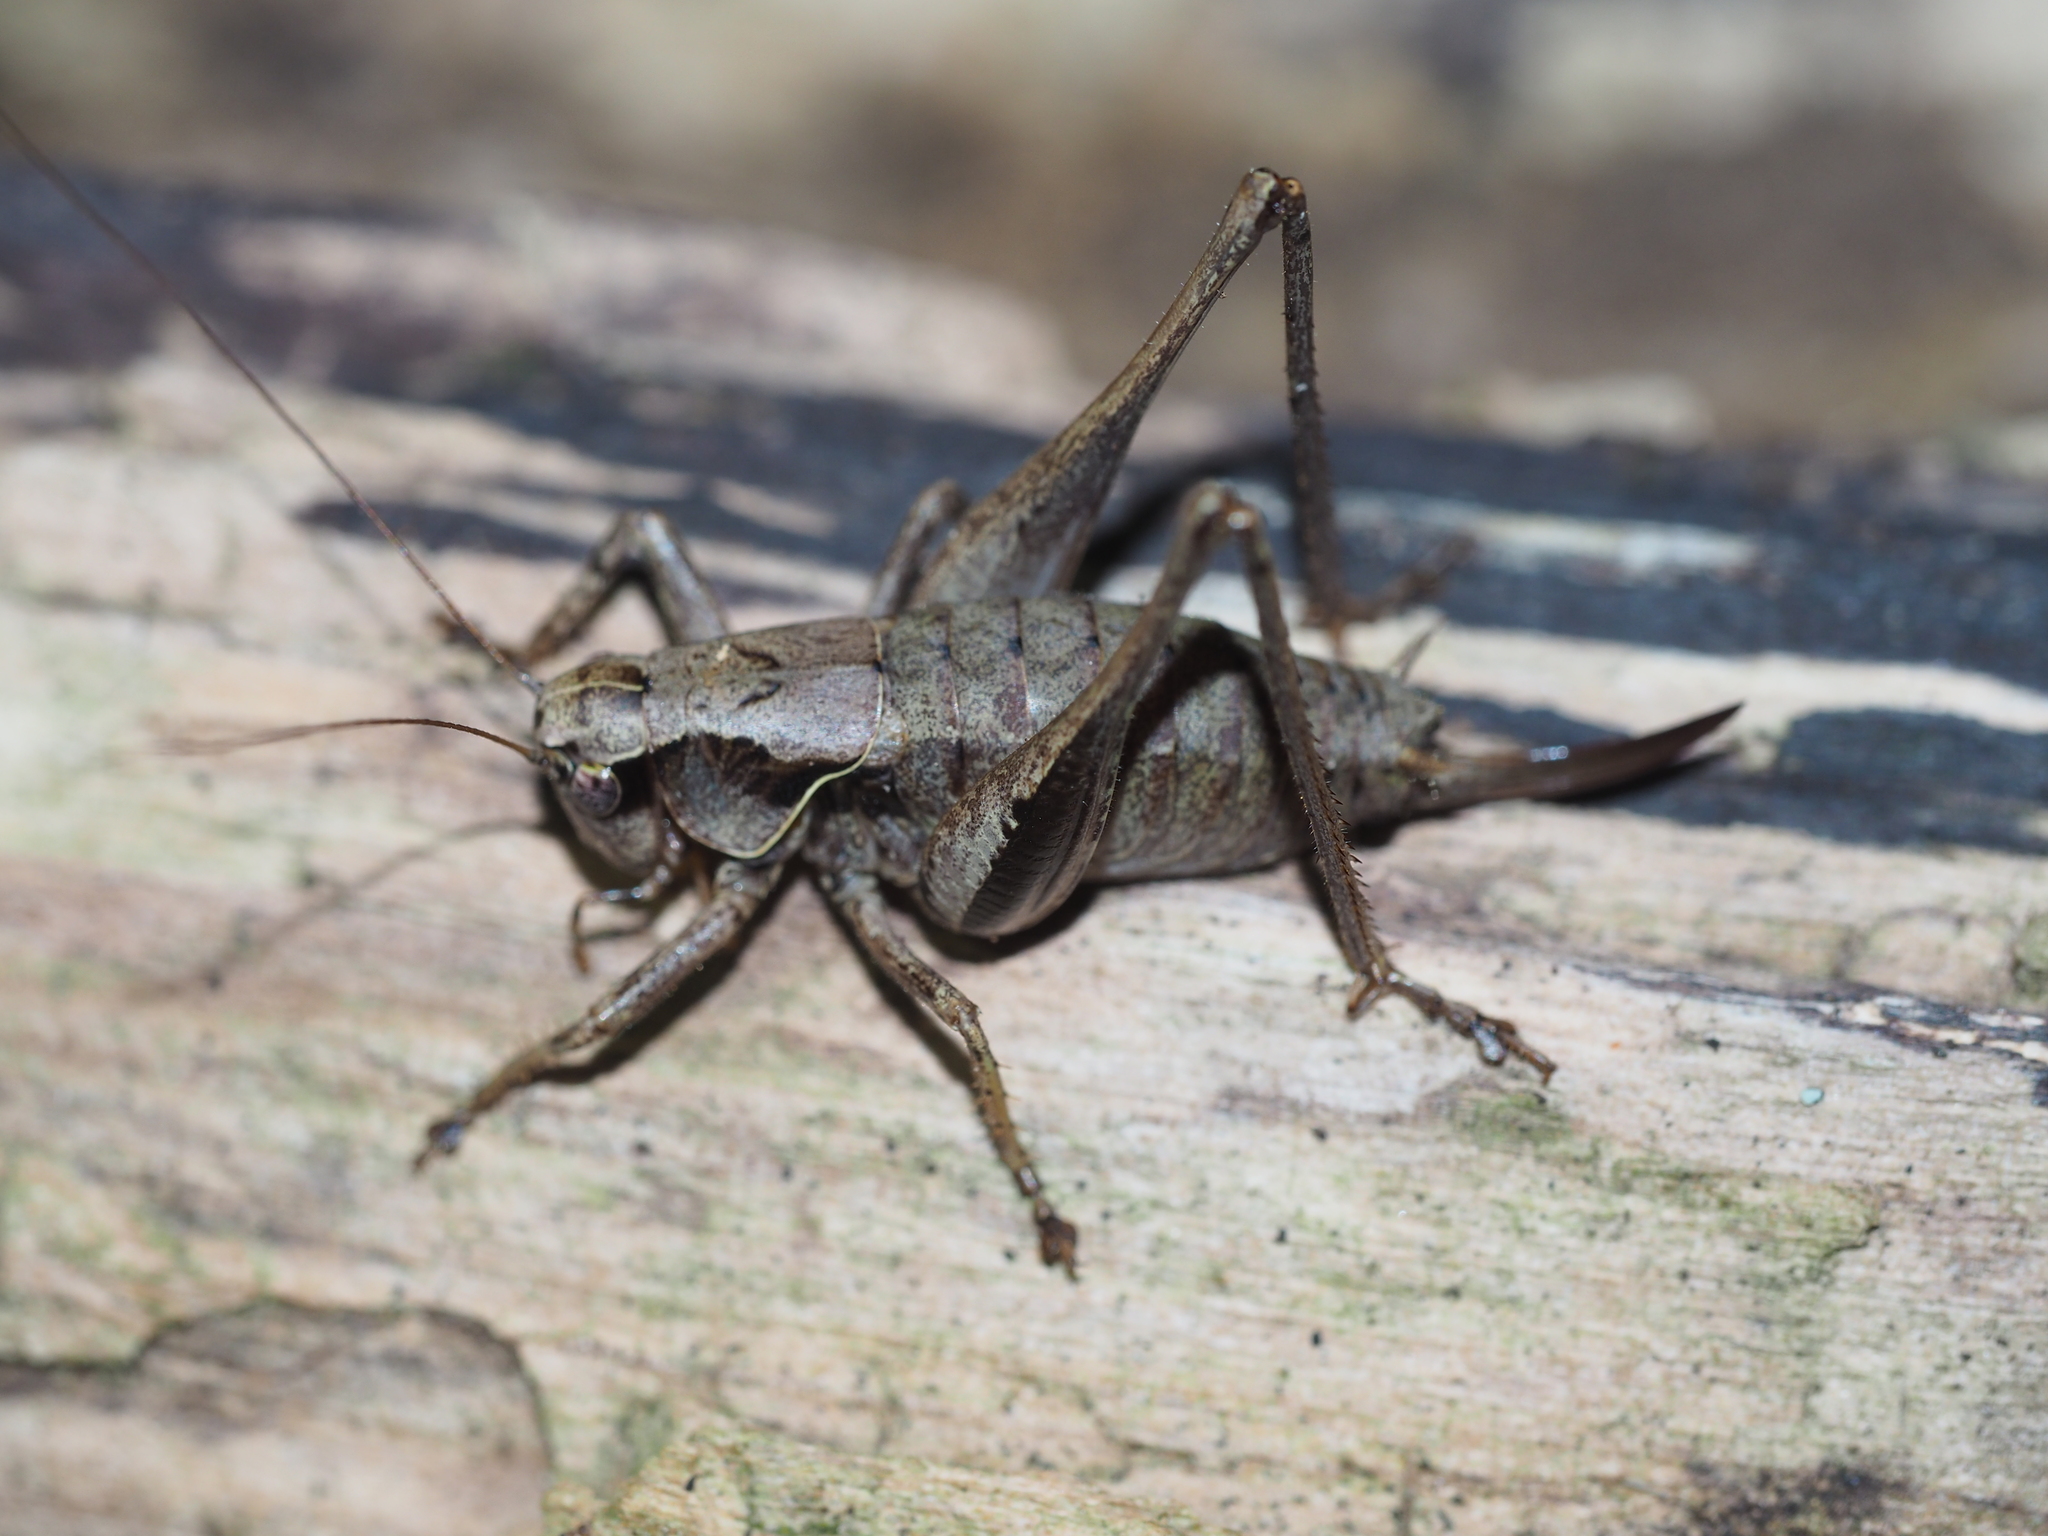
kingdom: Animalia
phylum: Arthropoda
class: Insecta
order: Orthoptera
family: Tettigoniidae
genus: Pholidoptera
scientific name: Pholidoptera griseoaptera
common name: Dark bush-cricket
